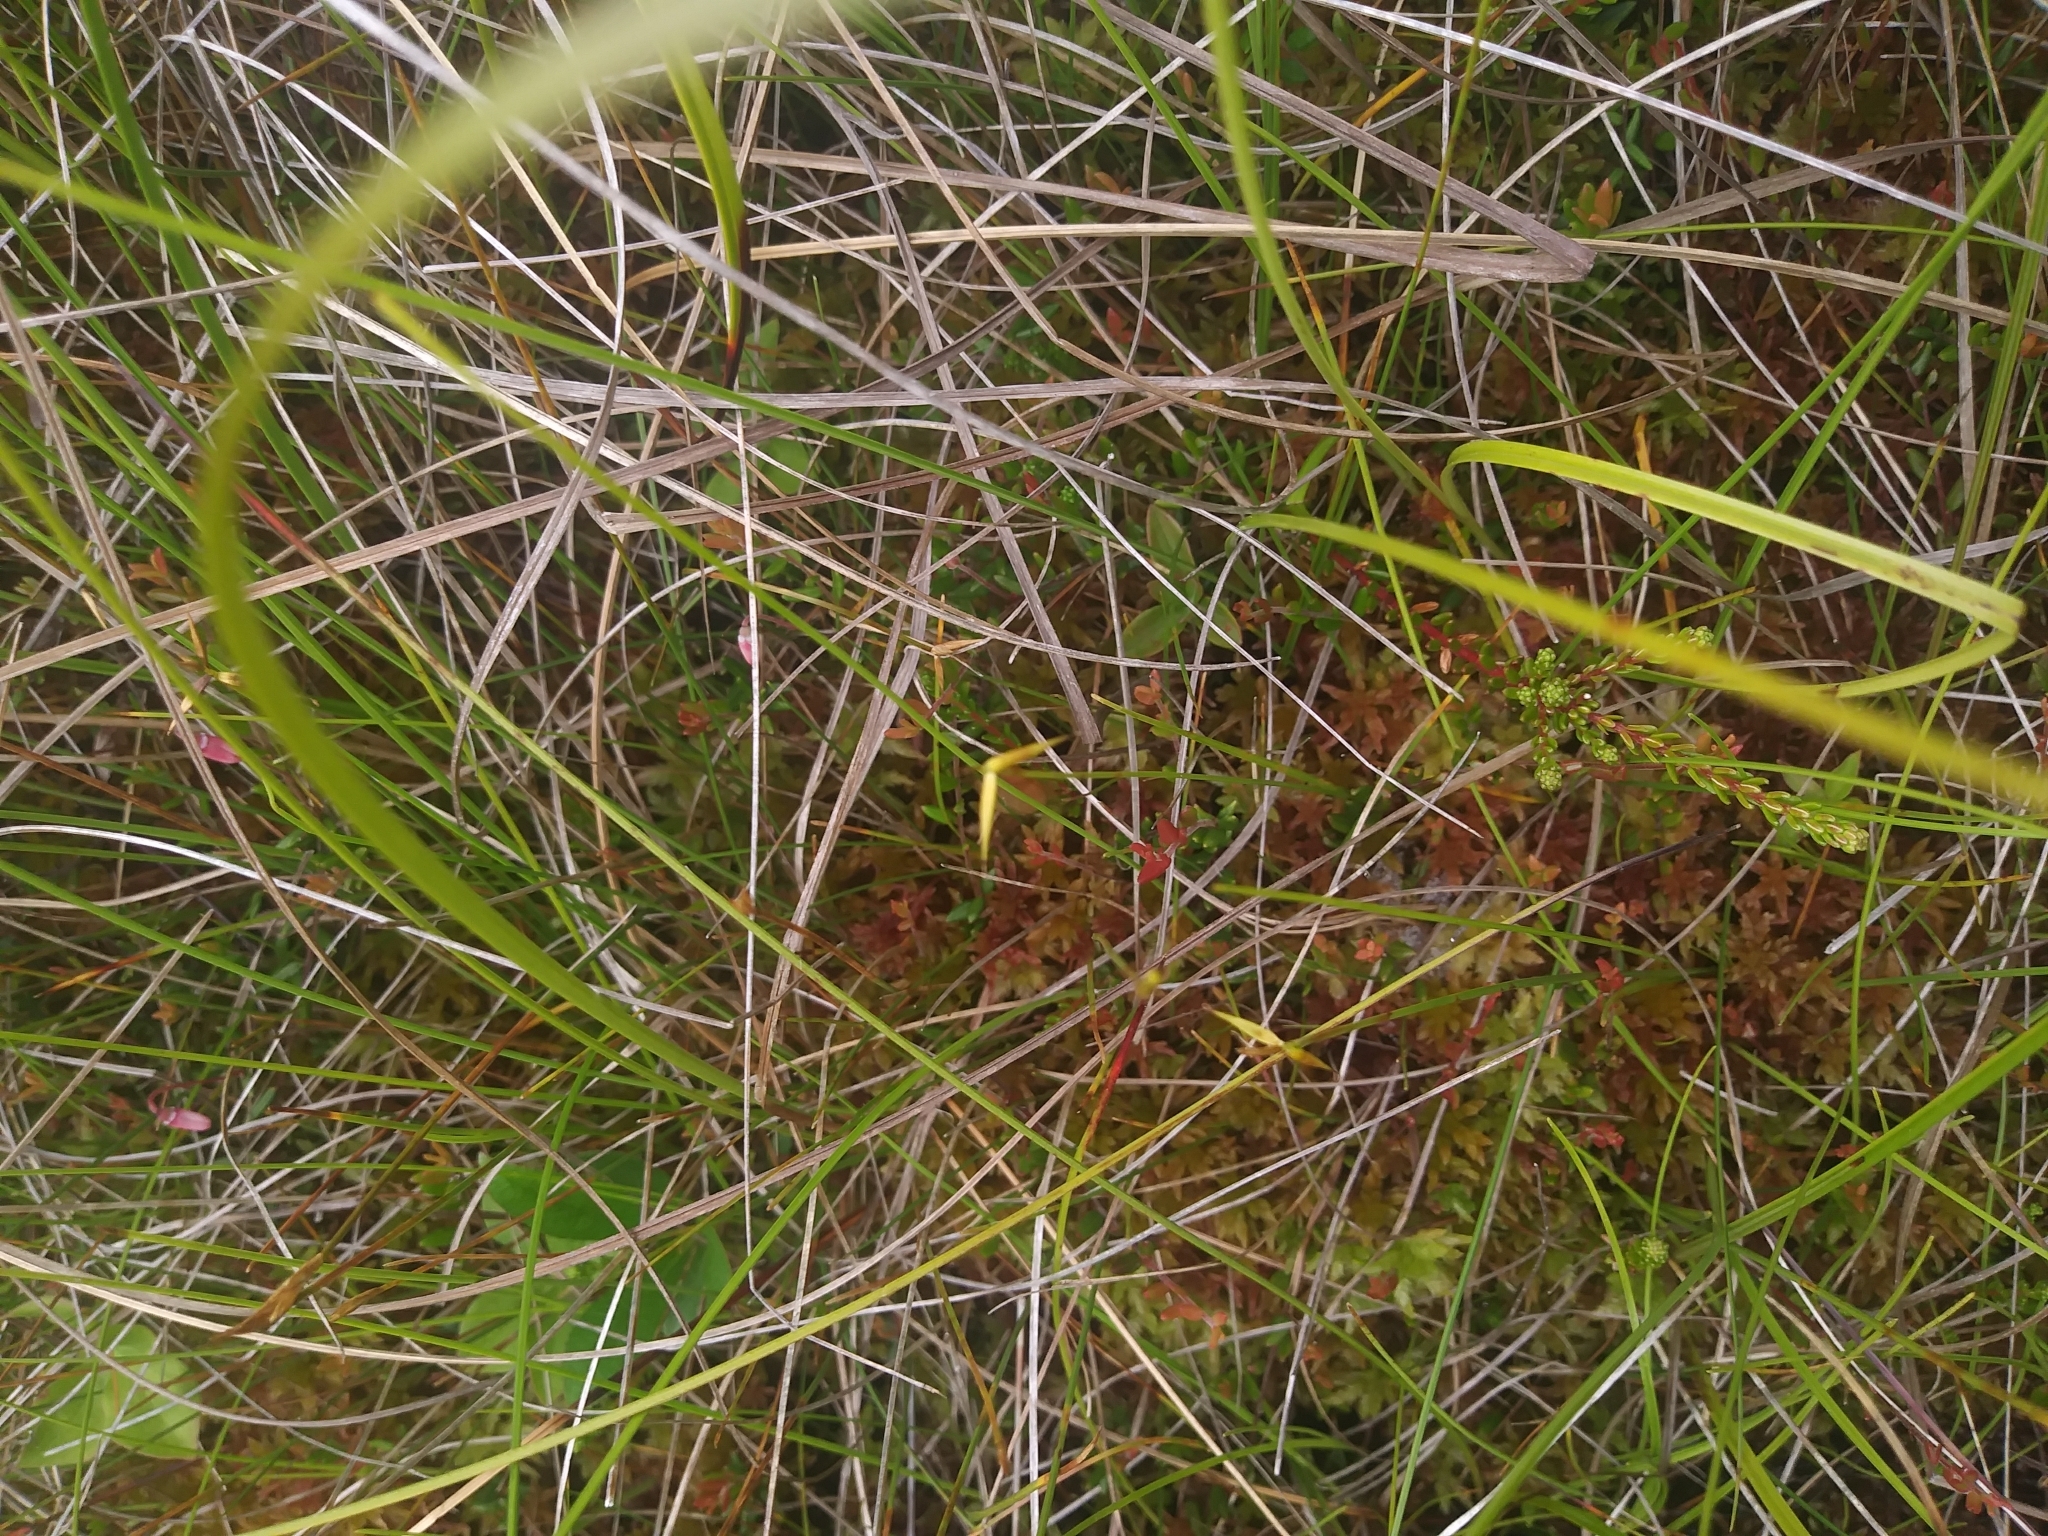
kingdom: Plantae
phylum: Tracheophyta
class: Liliopsida
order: Poales
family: Cyperaceae
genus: Carex
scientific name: Carex pauciflora
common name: Few-flowered sedge
